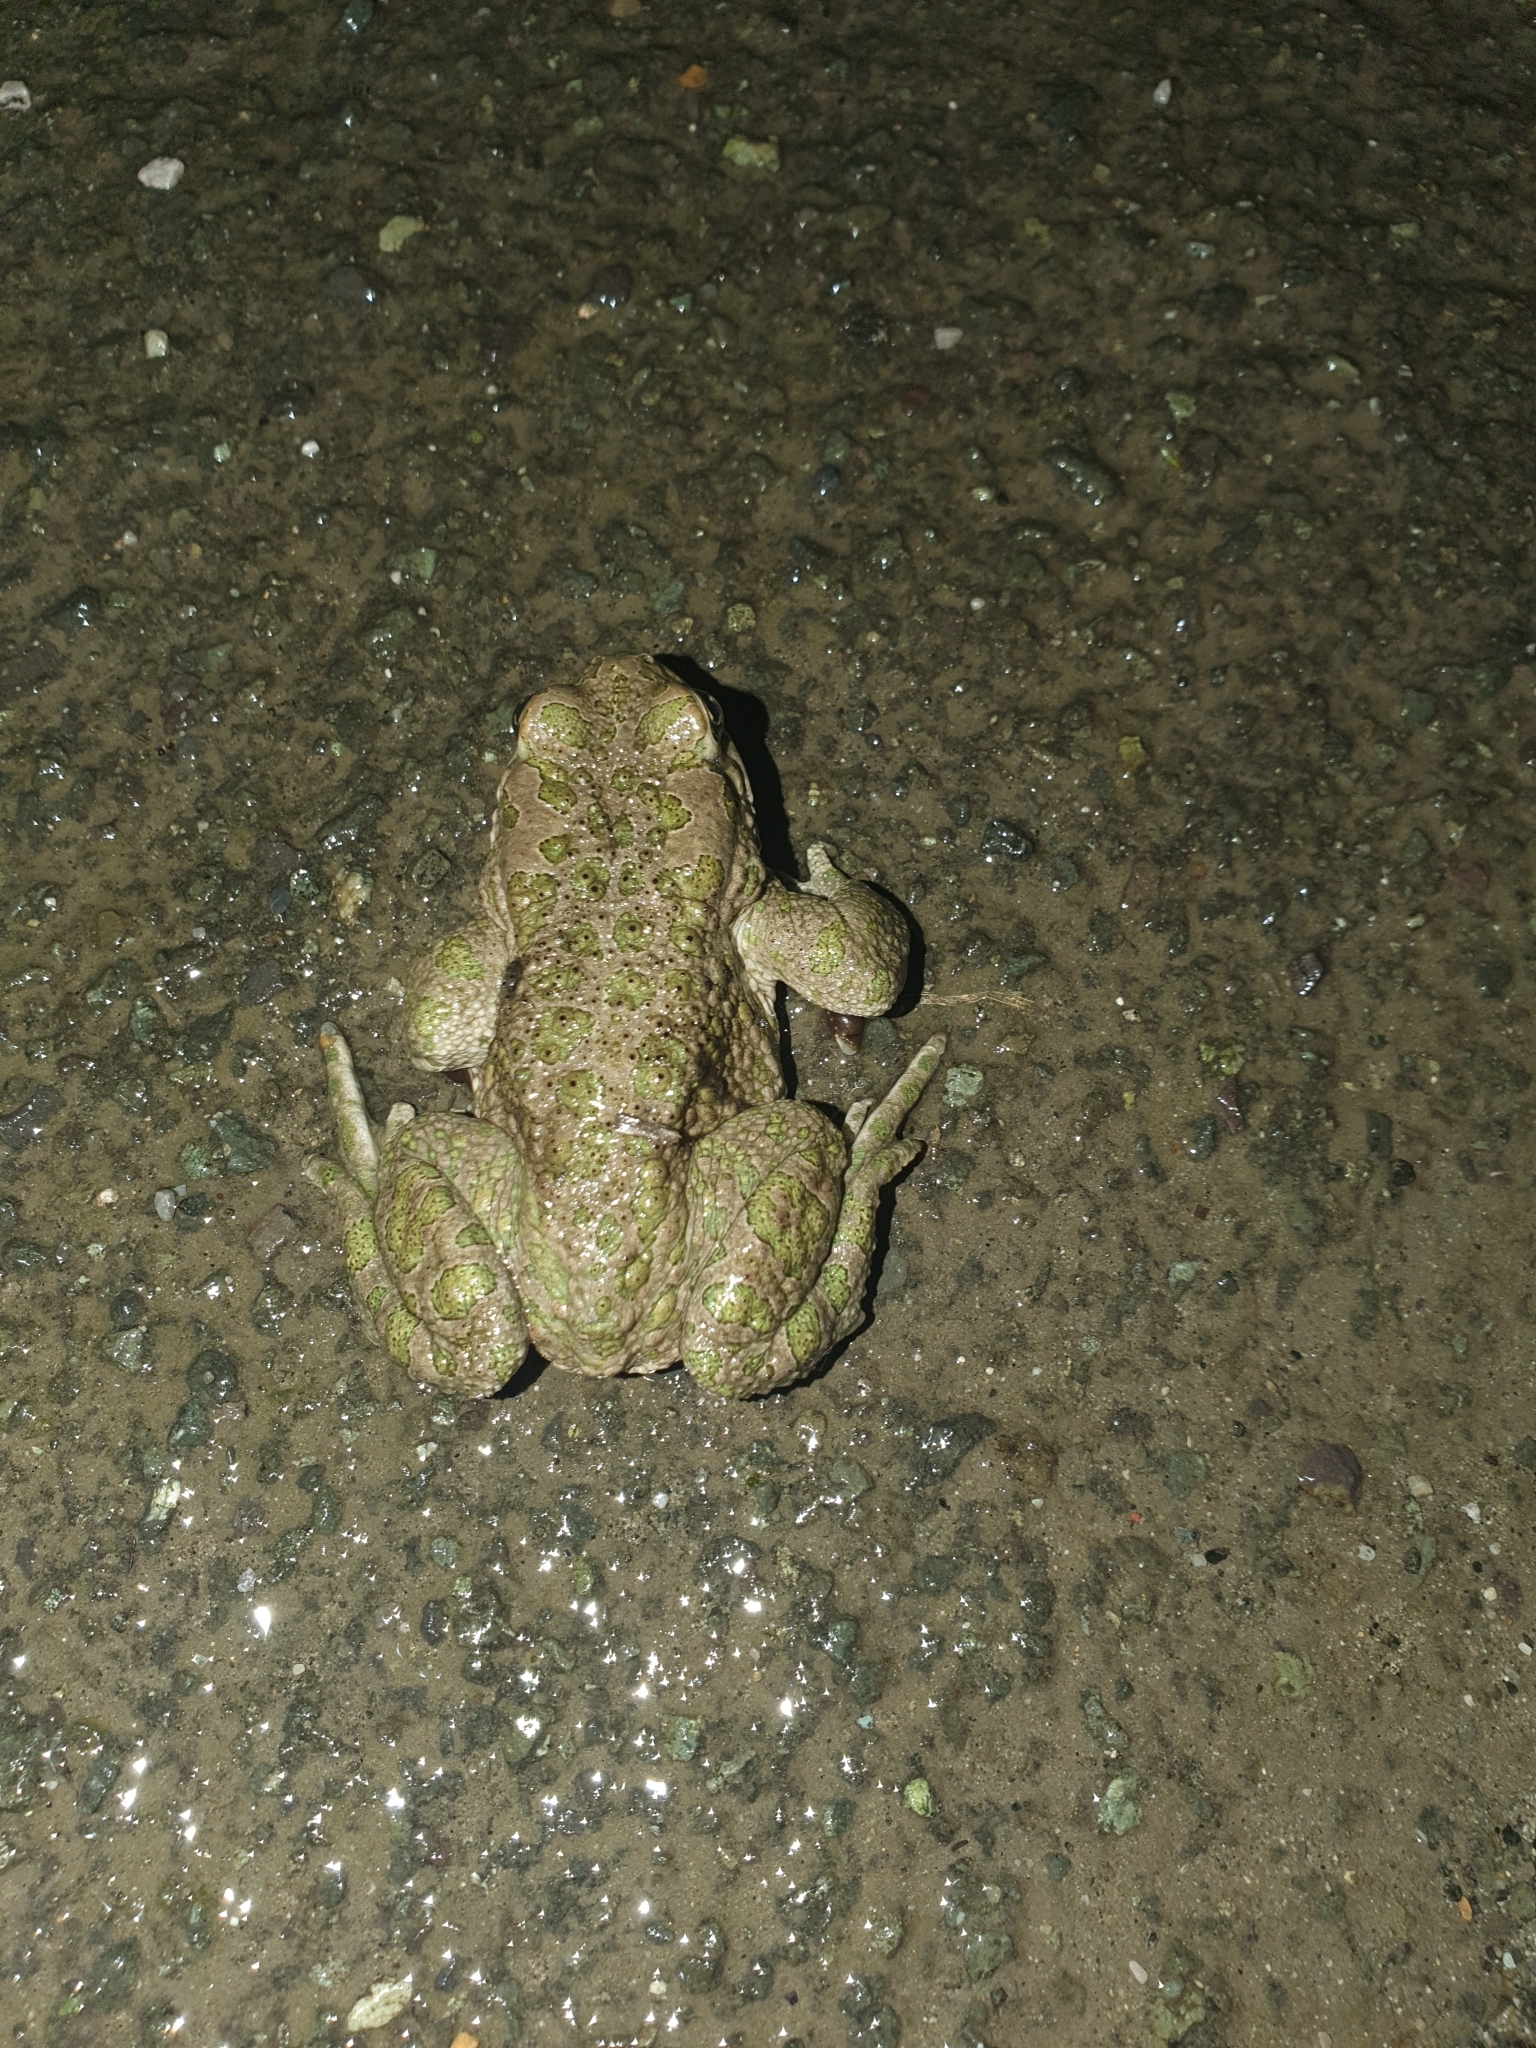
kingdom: Animalia
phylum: Chordata
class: Amphibia
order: Anura
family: Bufonidae
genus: Bufotes
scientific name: Bufotes viridis
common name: European green toad
